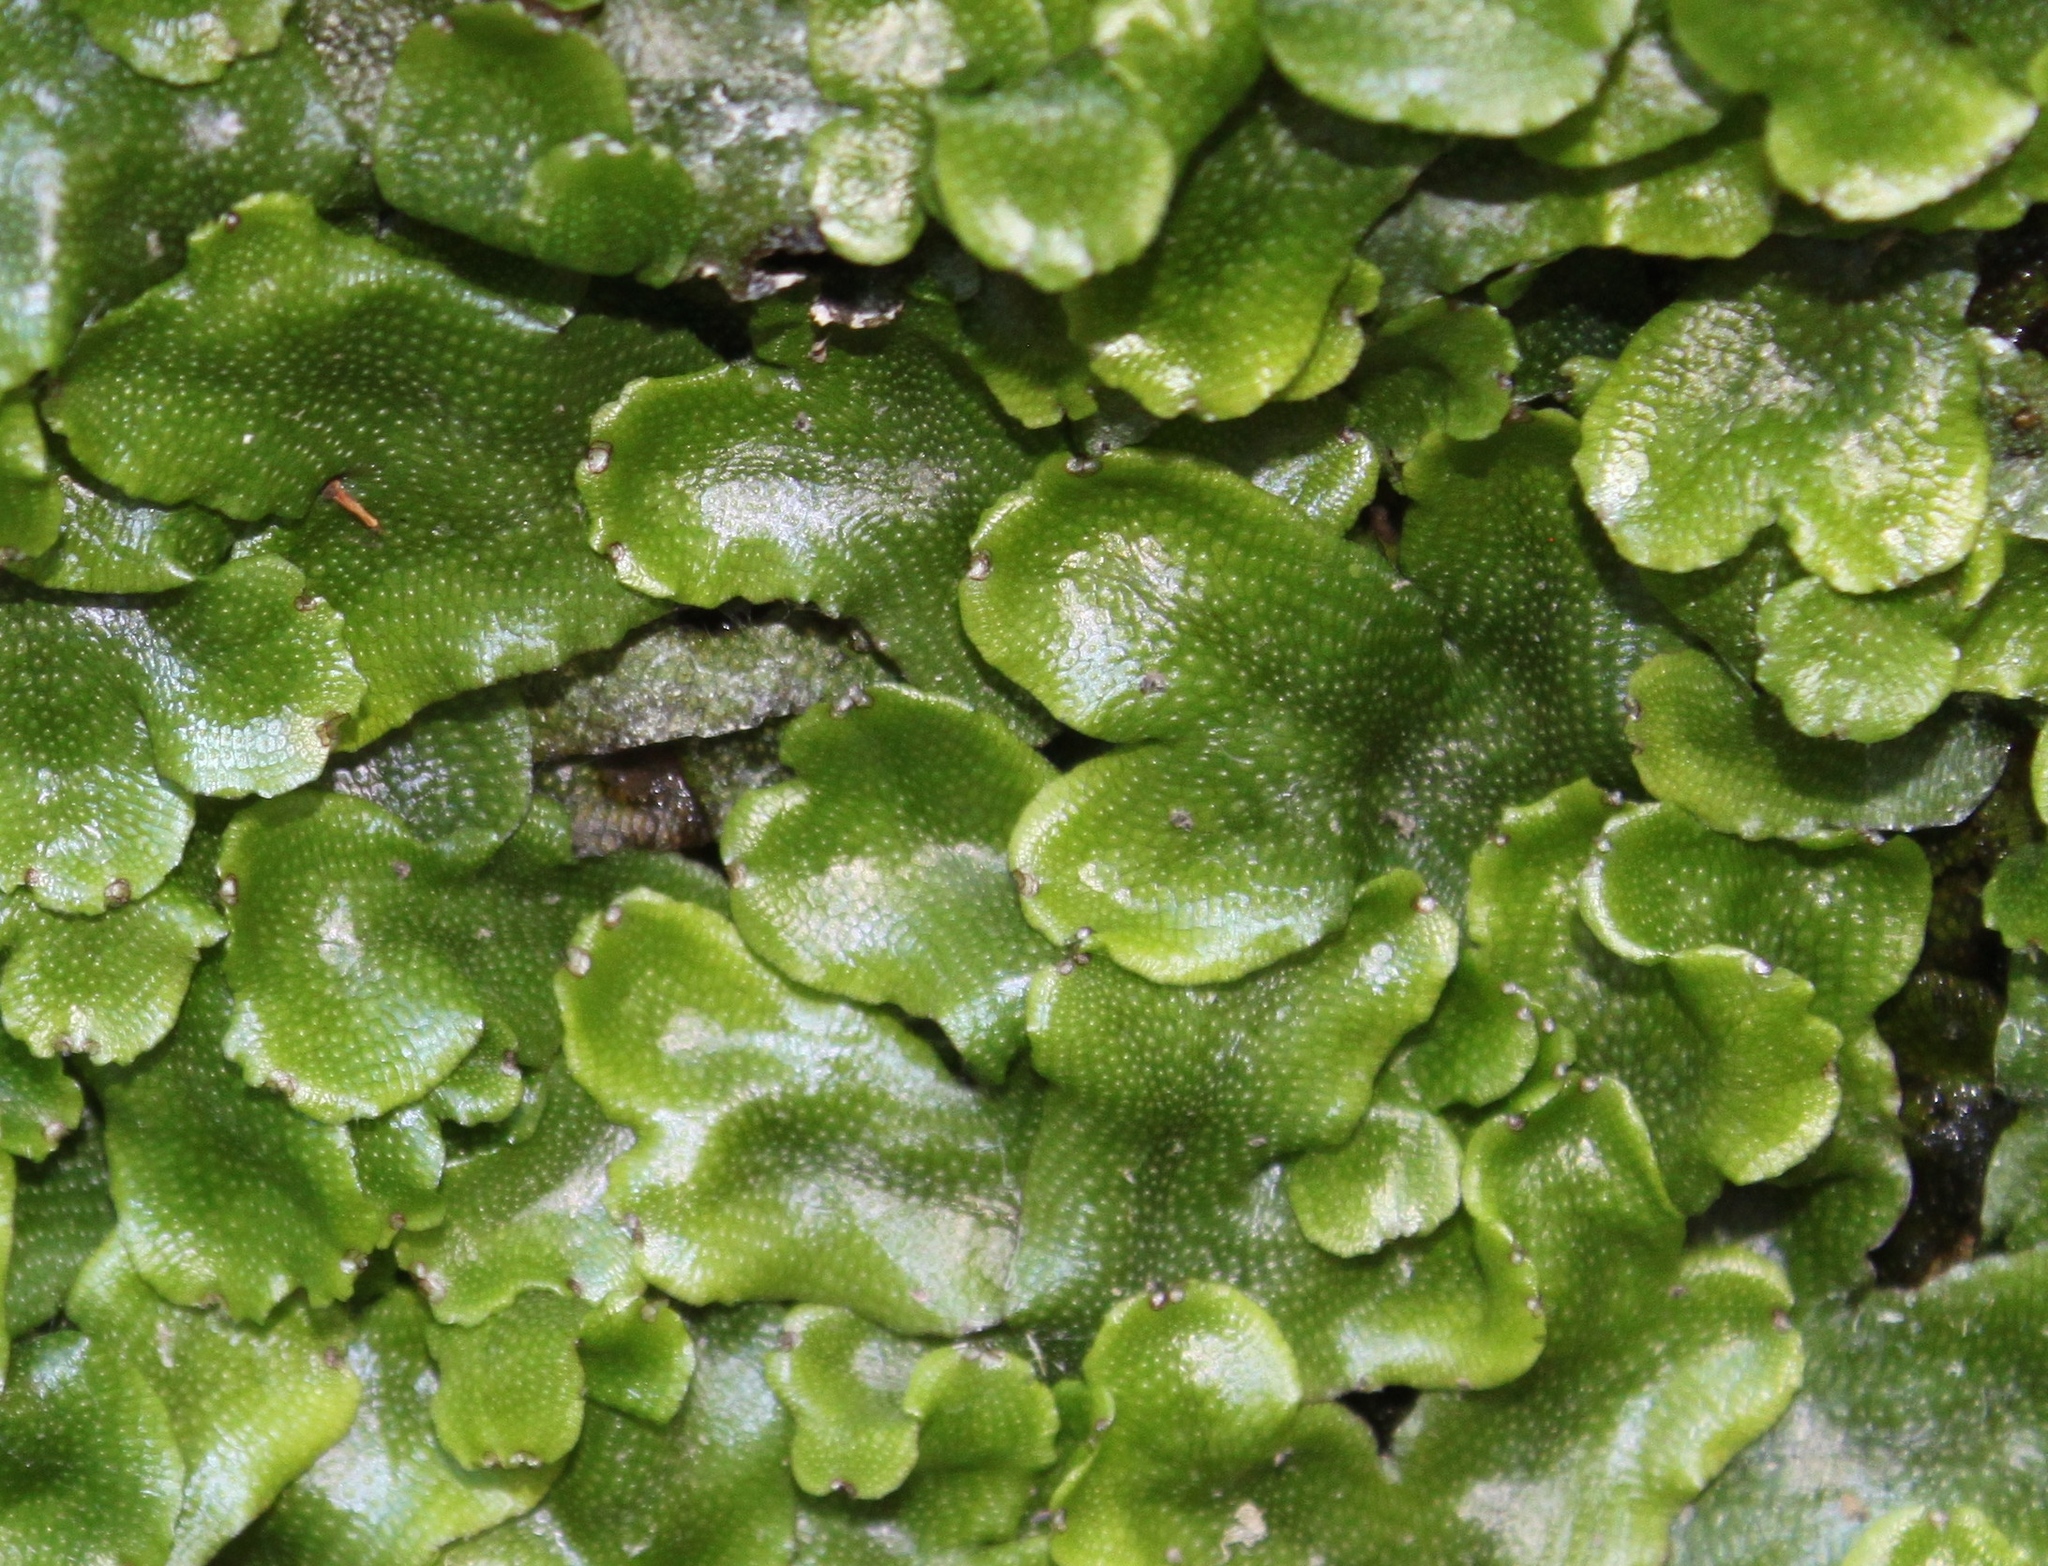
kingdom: Plantae
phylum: Marchantiophyta
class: Marchantiopsida
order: Marchantiales
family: Conocephalaceae
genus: Conocephalum
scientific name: Conocephalum conicum
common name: Great scented liverwort
